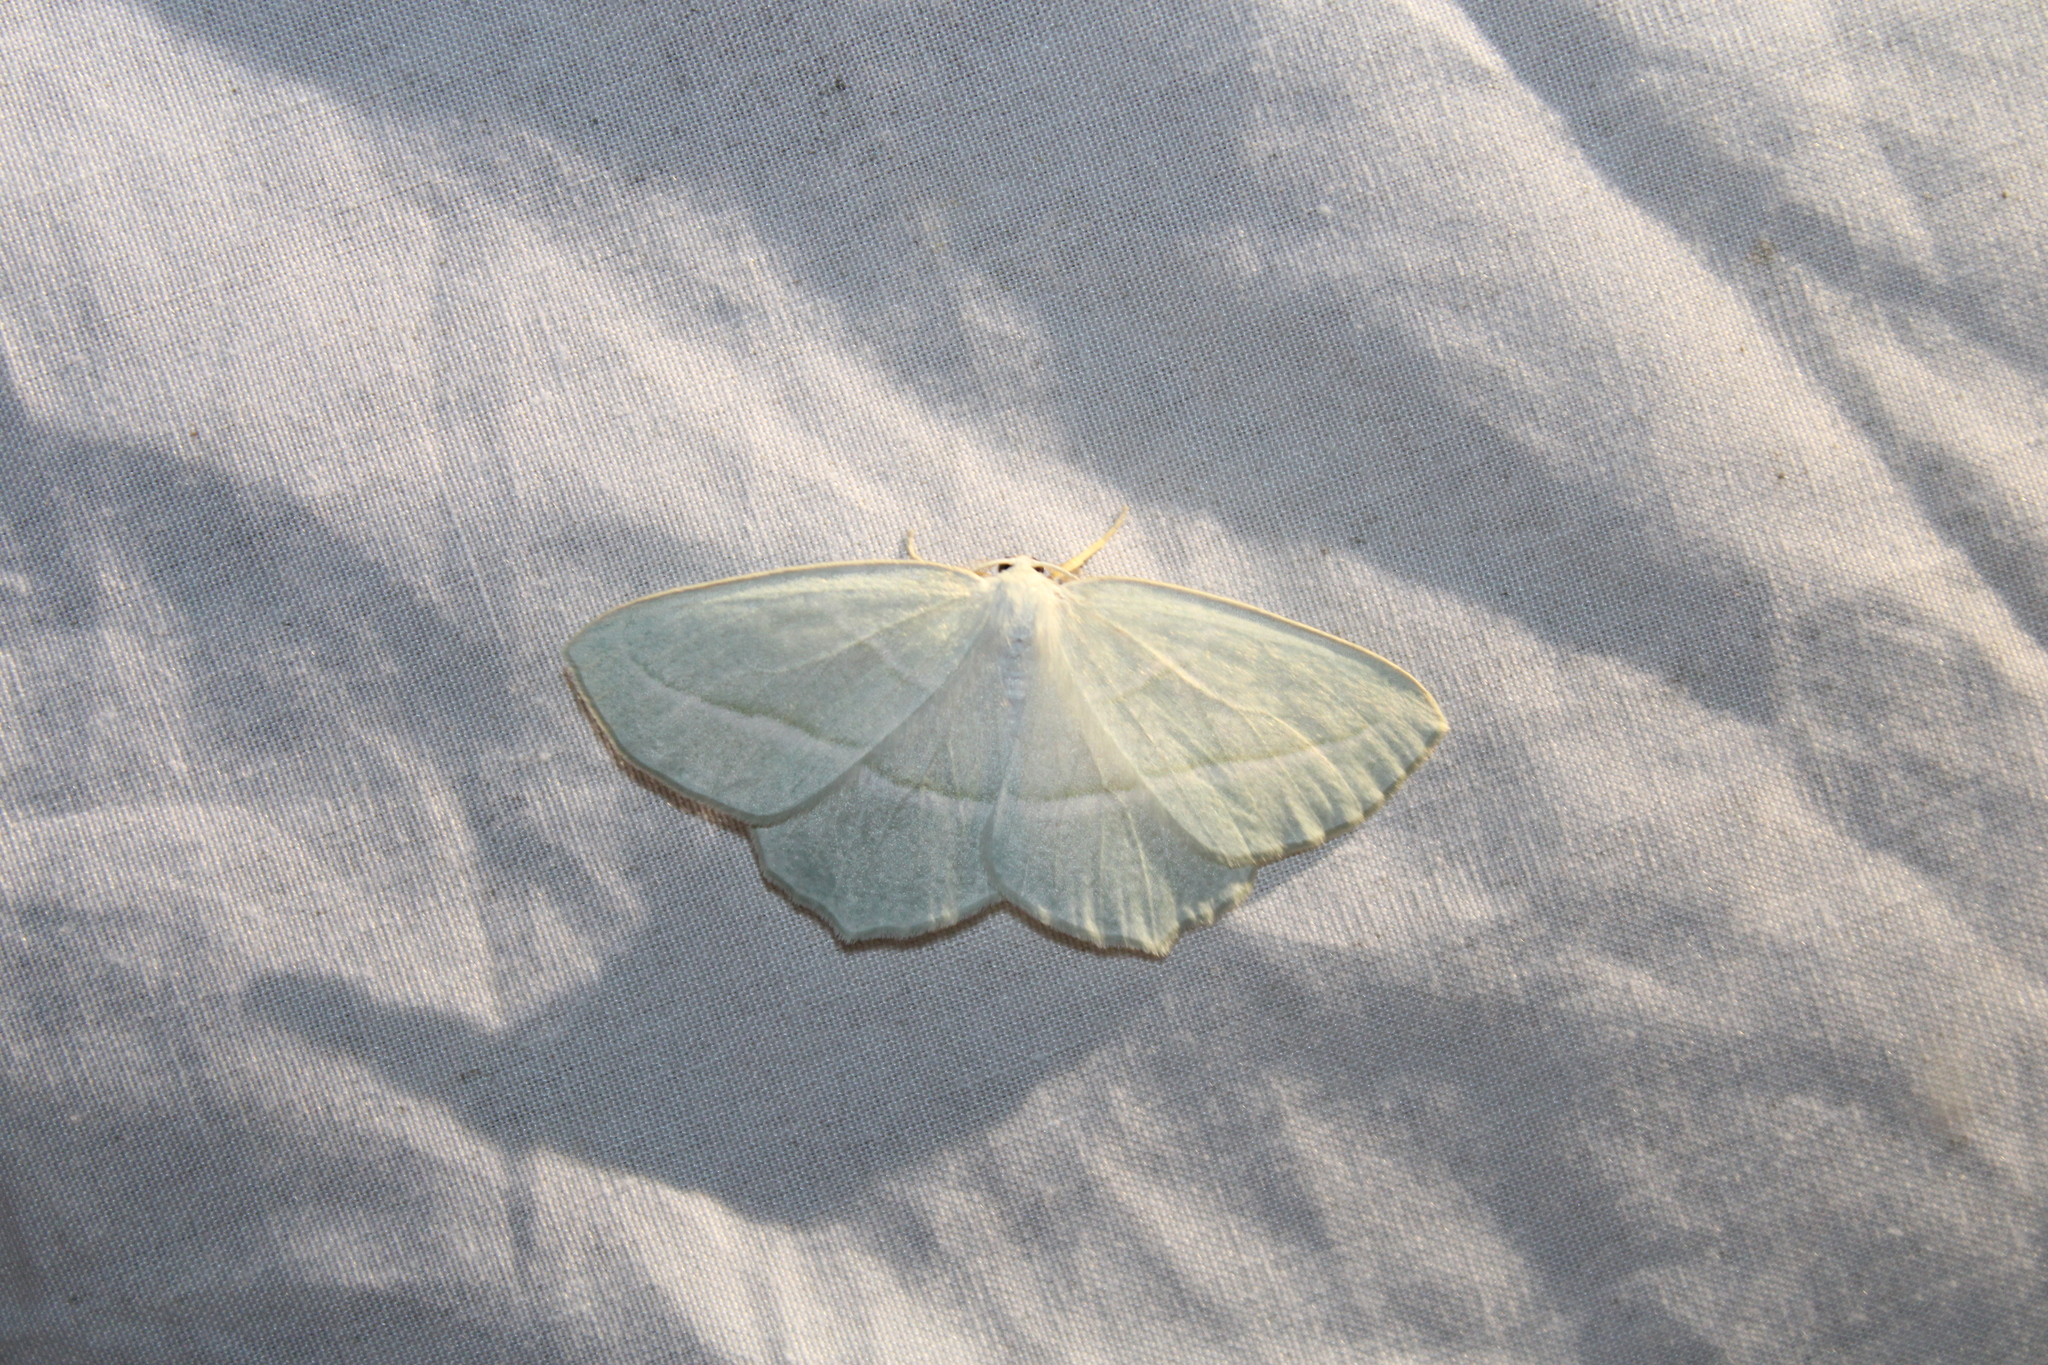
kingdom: Animalia
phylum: Arthropoda
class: Insecta
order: Lepidoptera
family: Geometridae
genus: Campaea
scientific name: Campaea perlata
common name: Fringed looper
